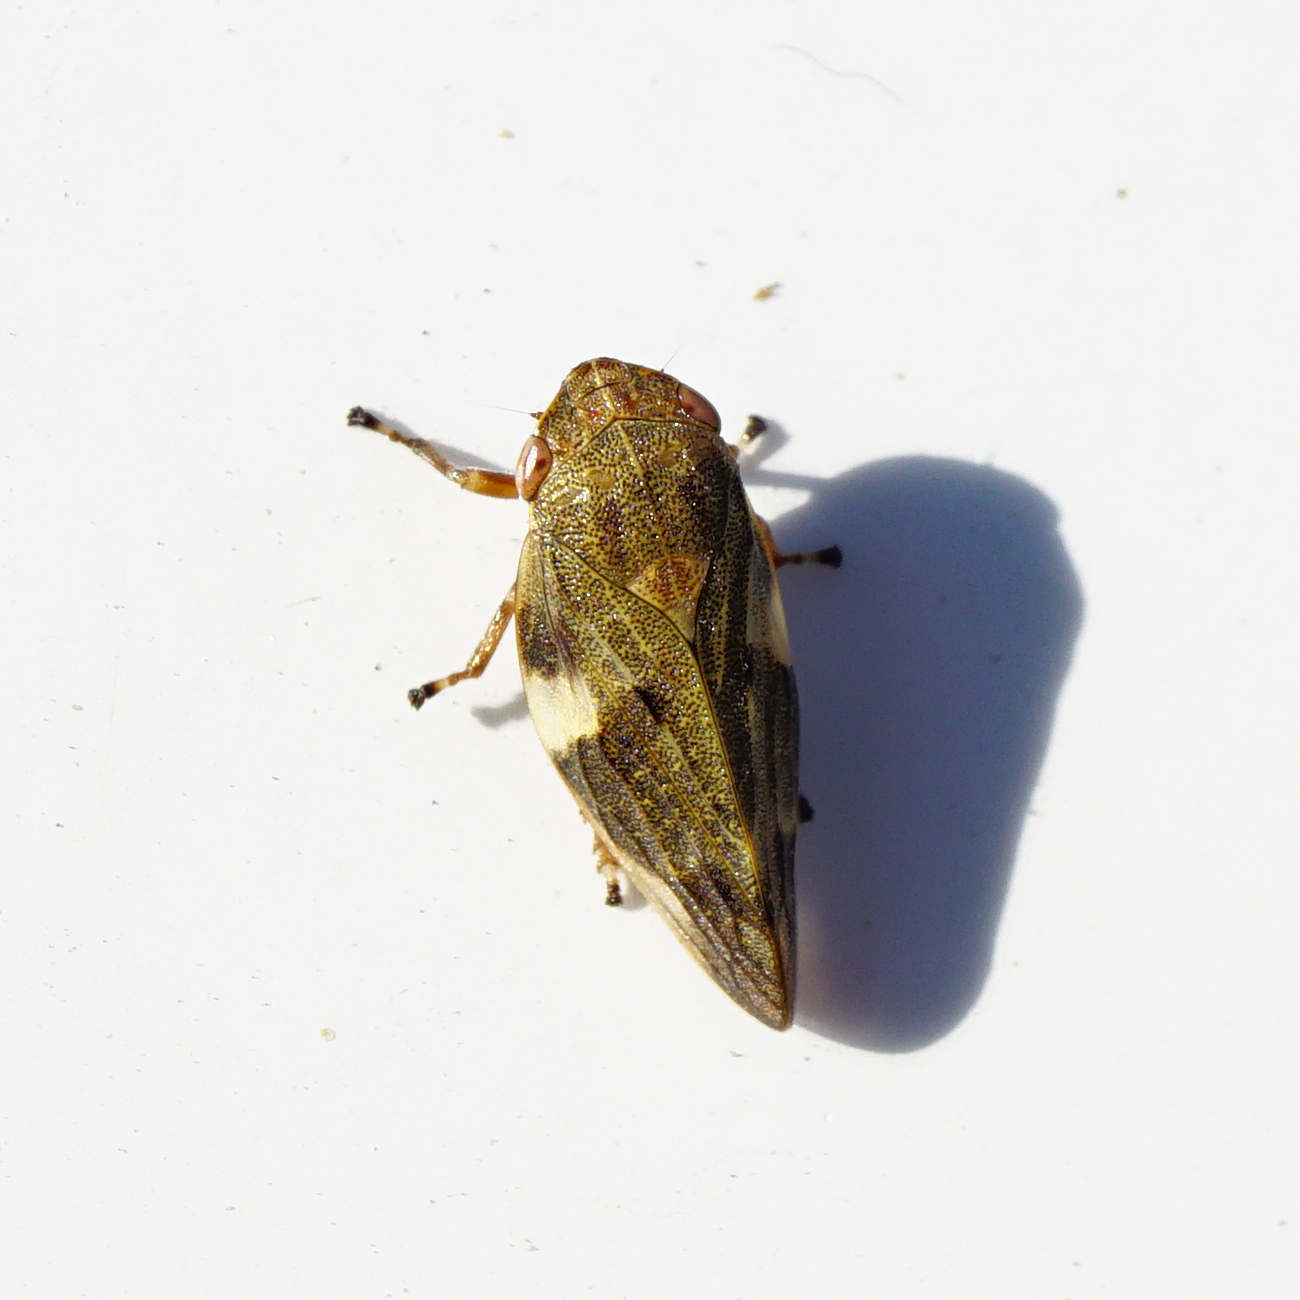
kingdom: Animalia
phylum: Arthropoda
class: Insecta
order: Hemiptera
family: Aphrophoridae
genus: Aphrophora
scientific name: Aphrophora alni
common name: European alder spittlebug
